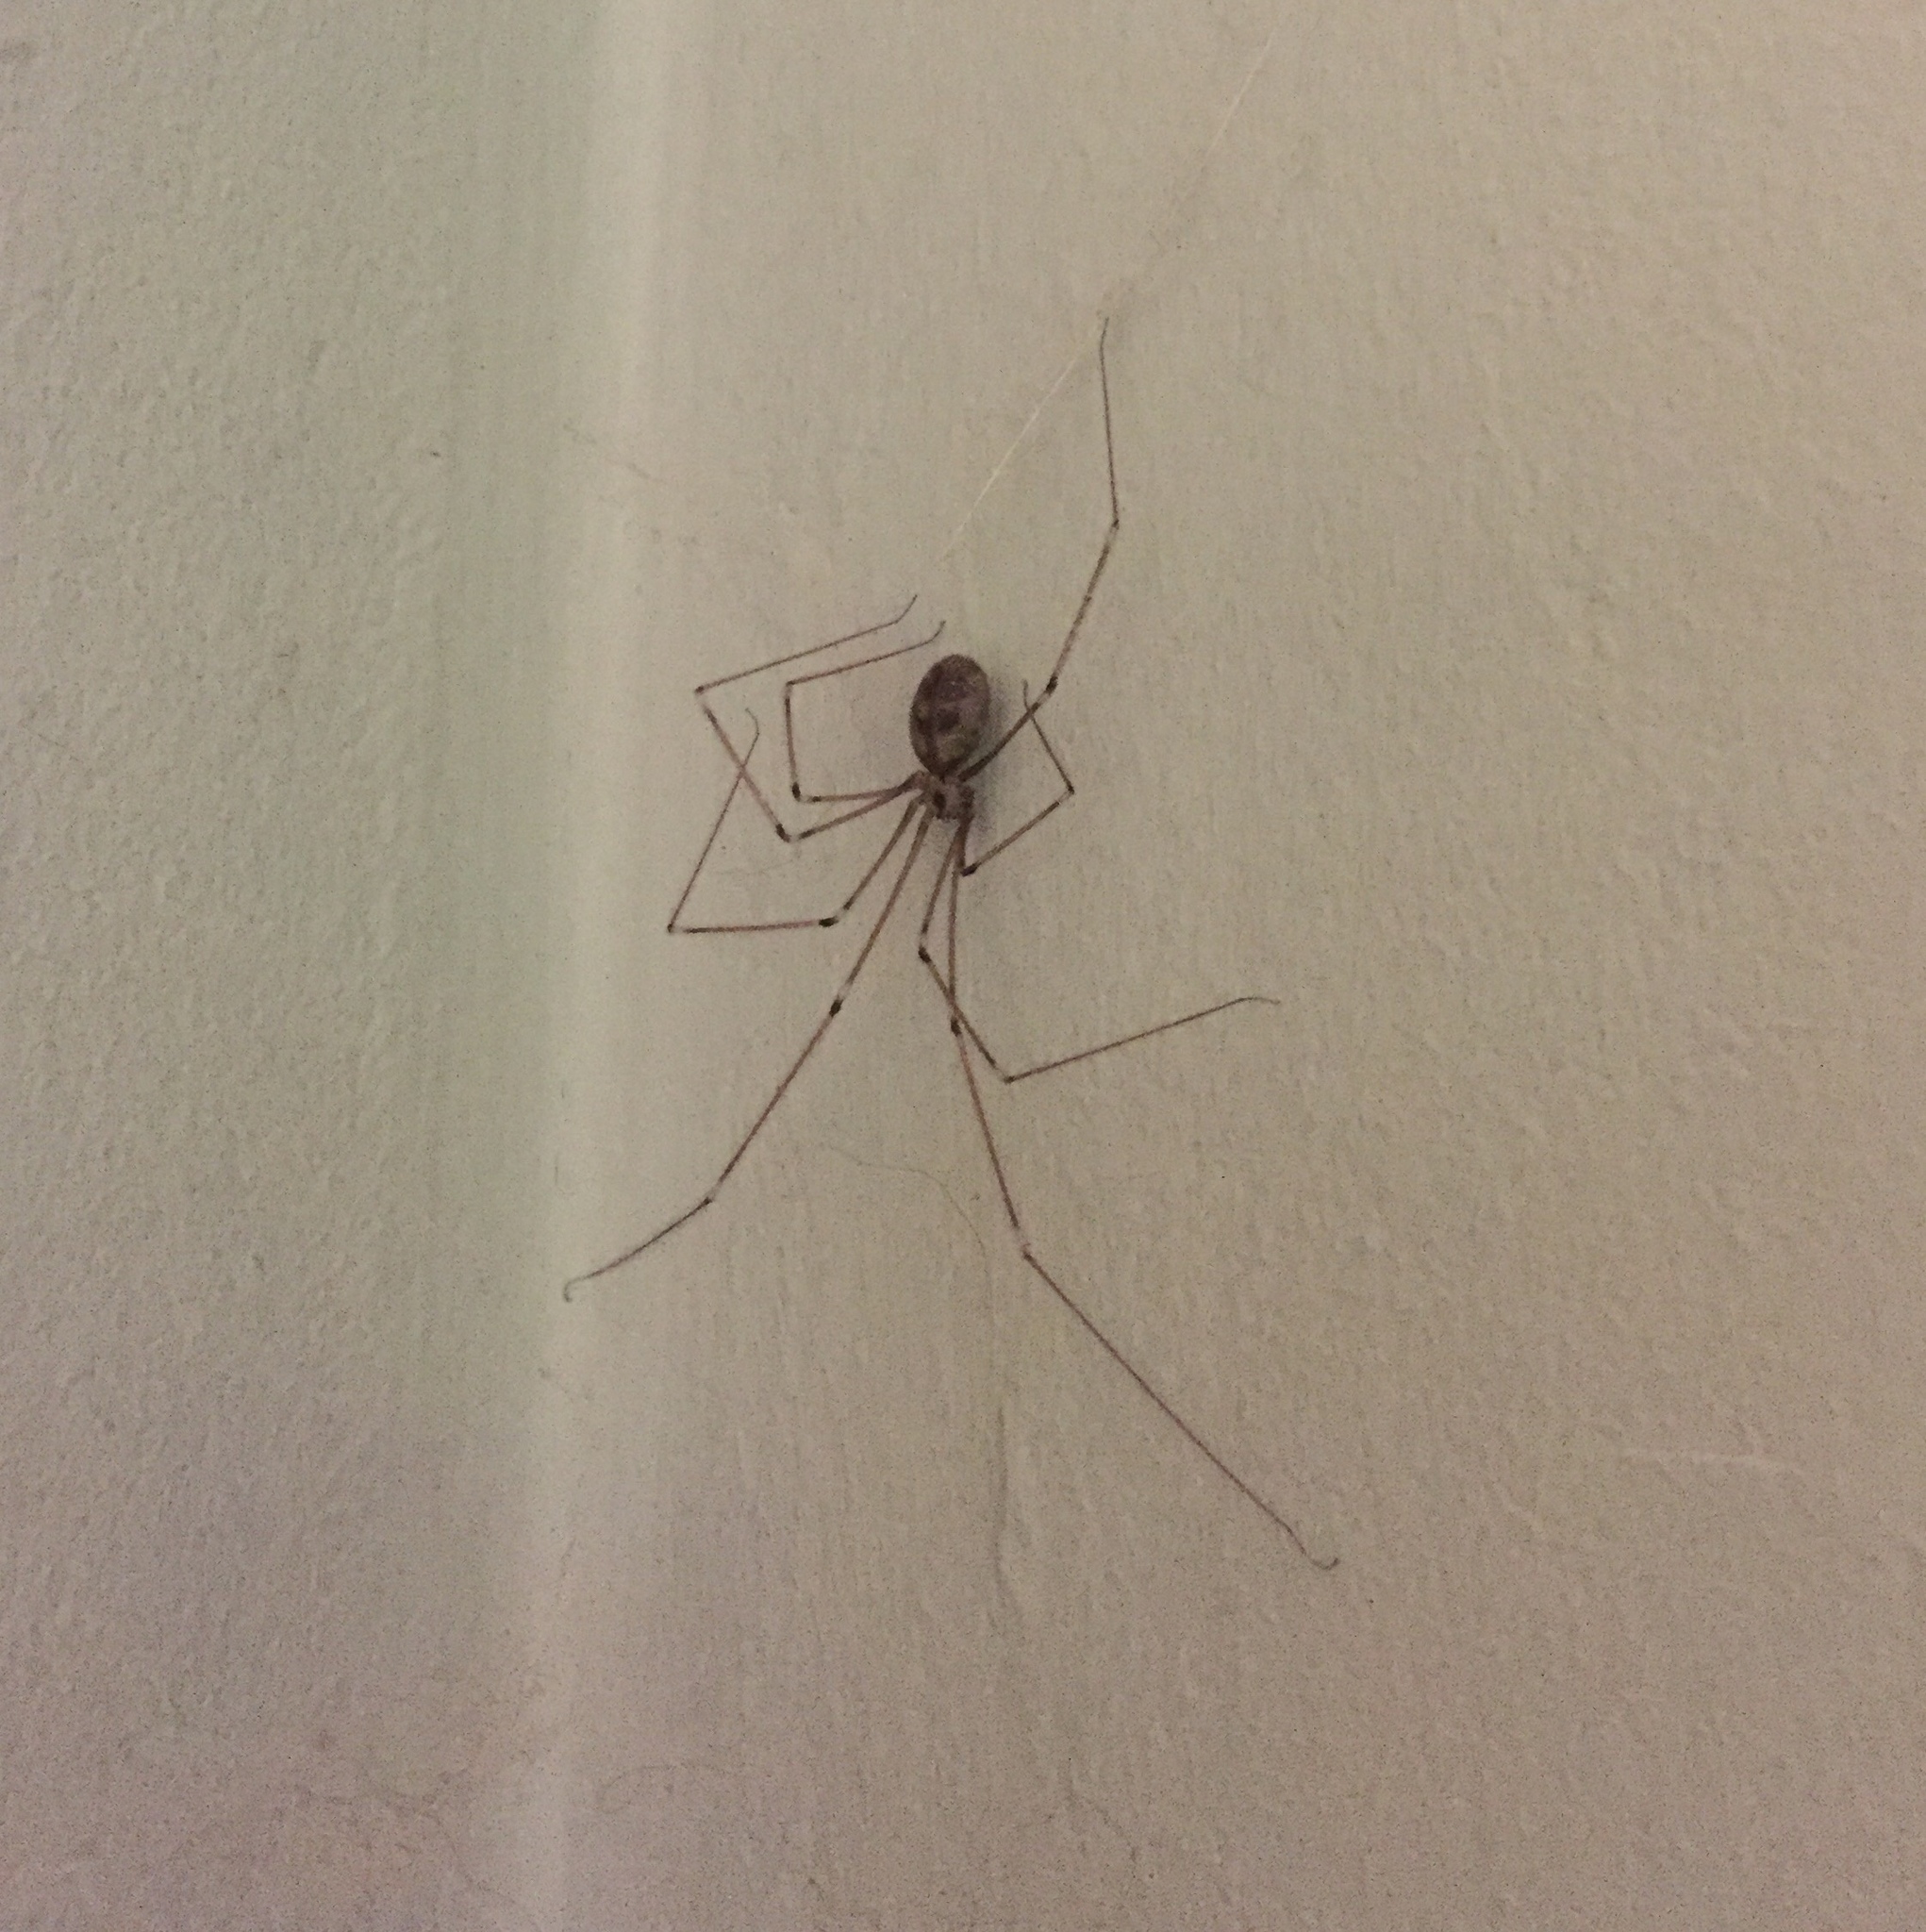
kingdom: Animalia
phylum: Arthropoda
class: Arachnida
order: Araneae
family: Pholcidae
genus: Pholcus
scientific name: Pholcus phalangioides
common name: Longbodied cellar spider
